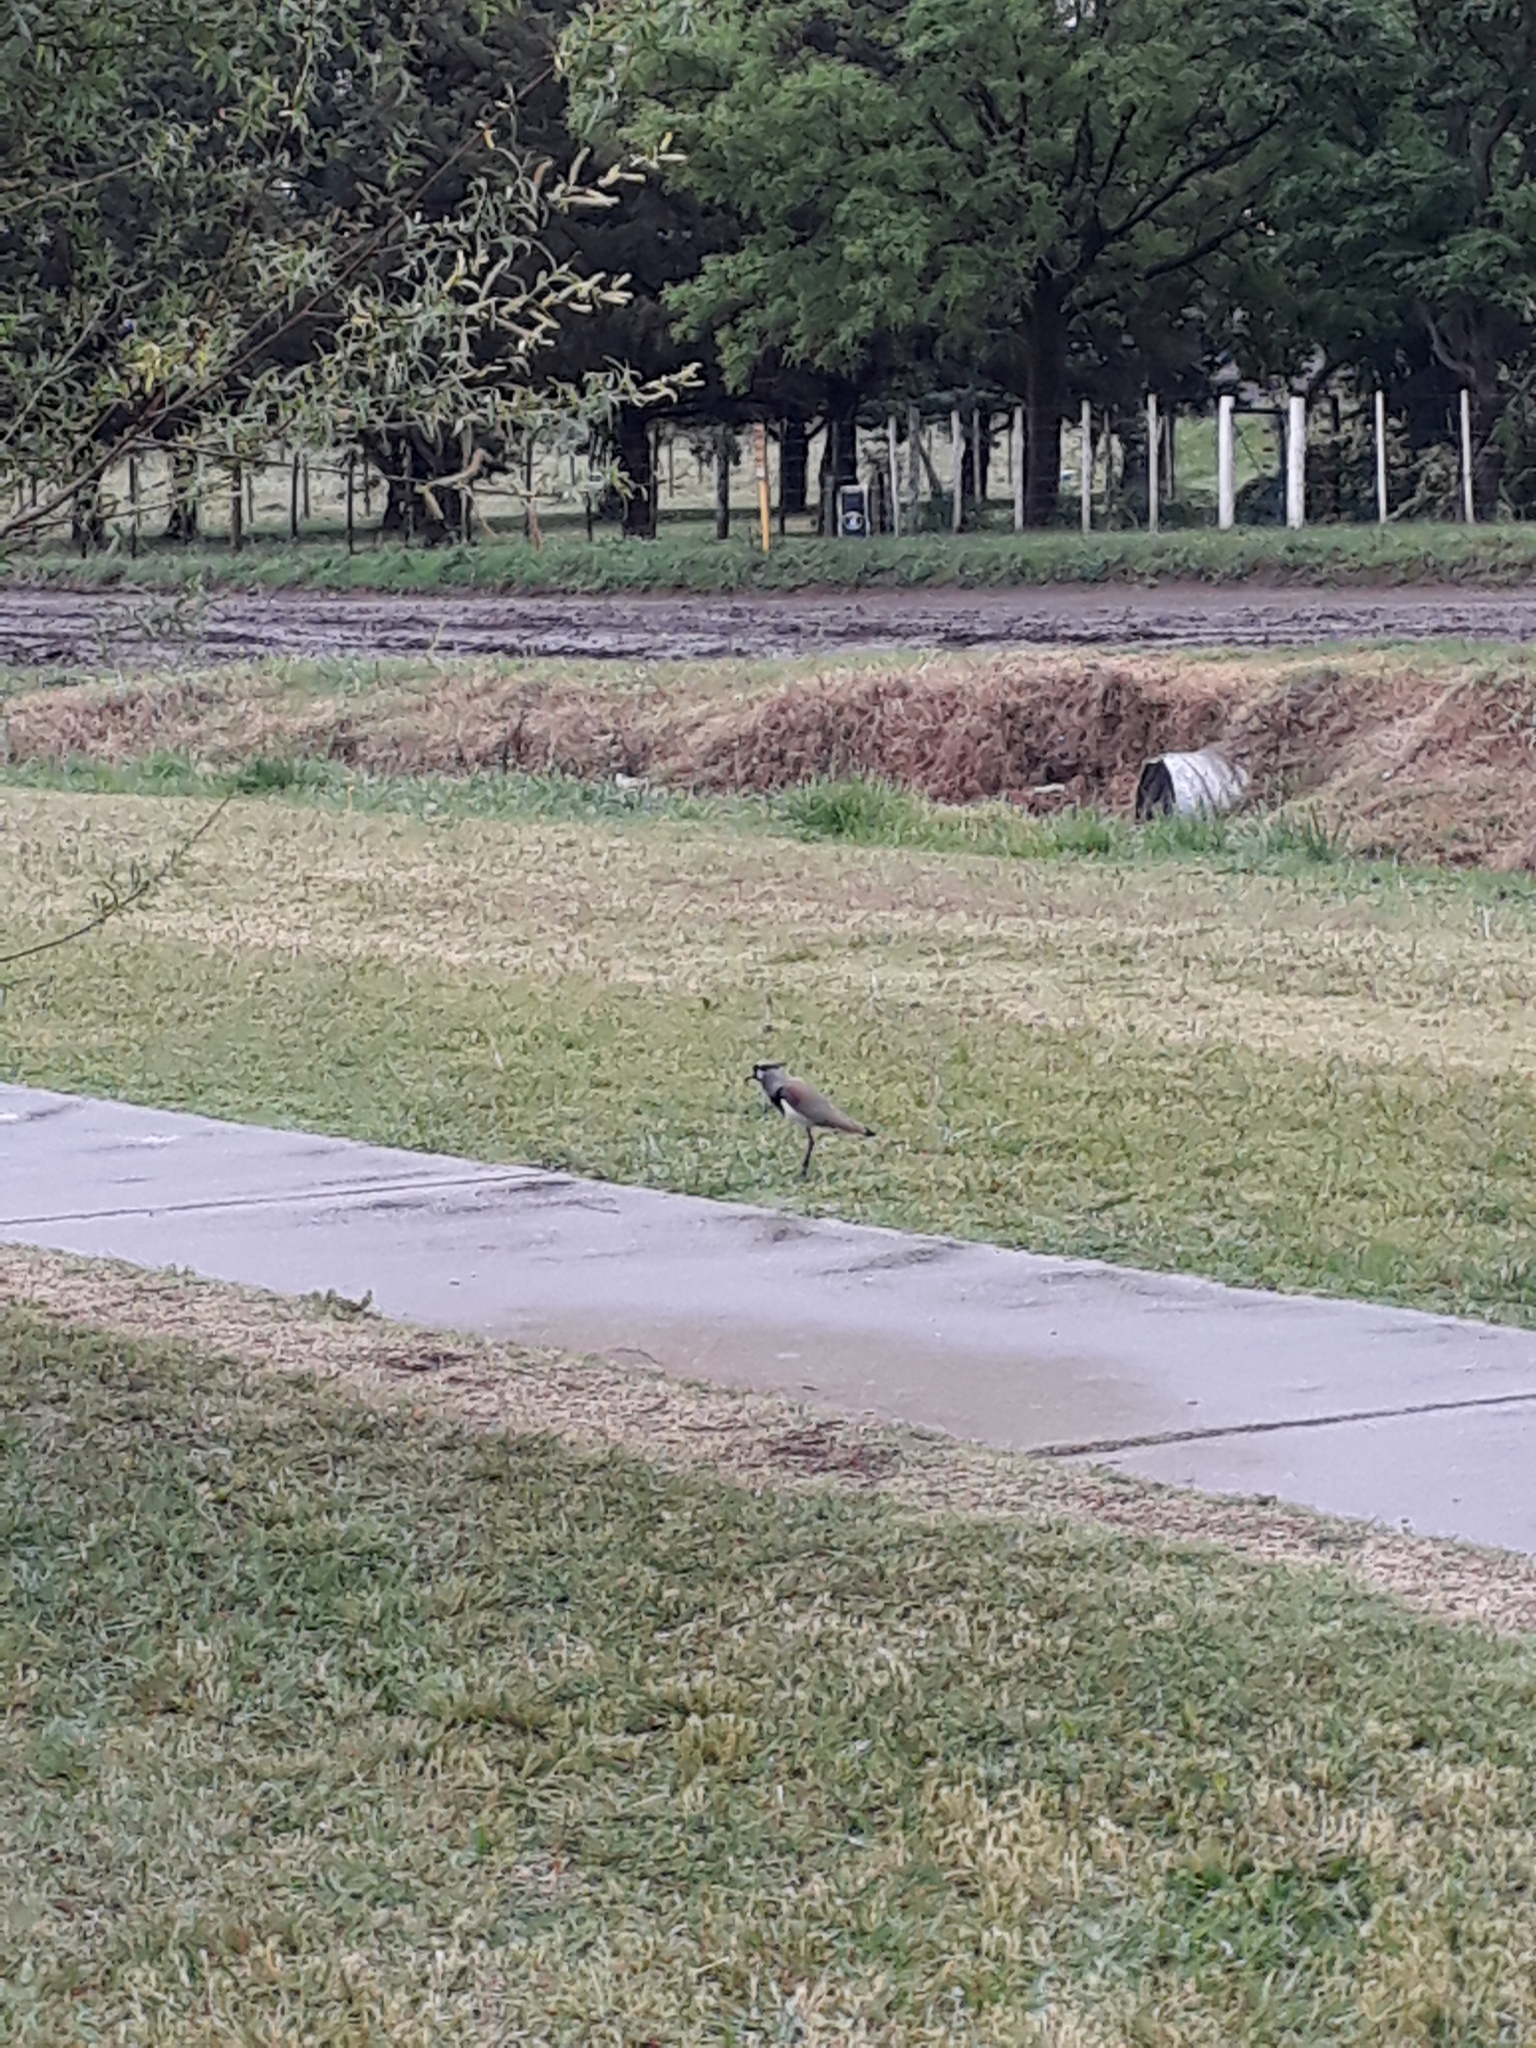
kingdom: Animalia
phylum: Chordata
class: Aves
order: Charadriiformes
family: Charadriidae
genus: Vanellus
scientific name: Vanellus chilensis
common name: Southern lapwing
